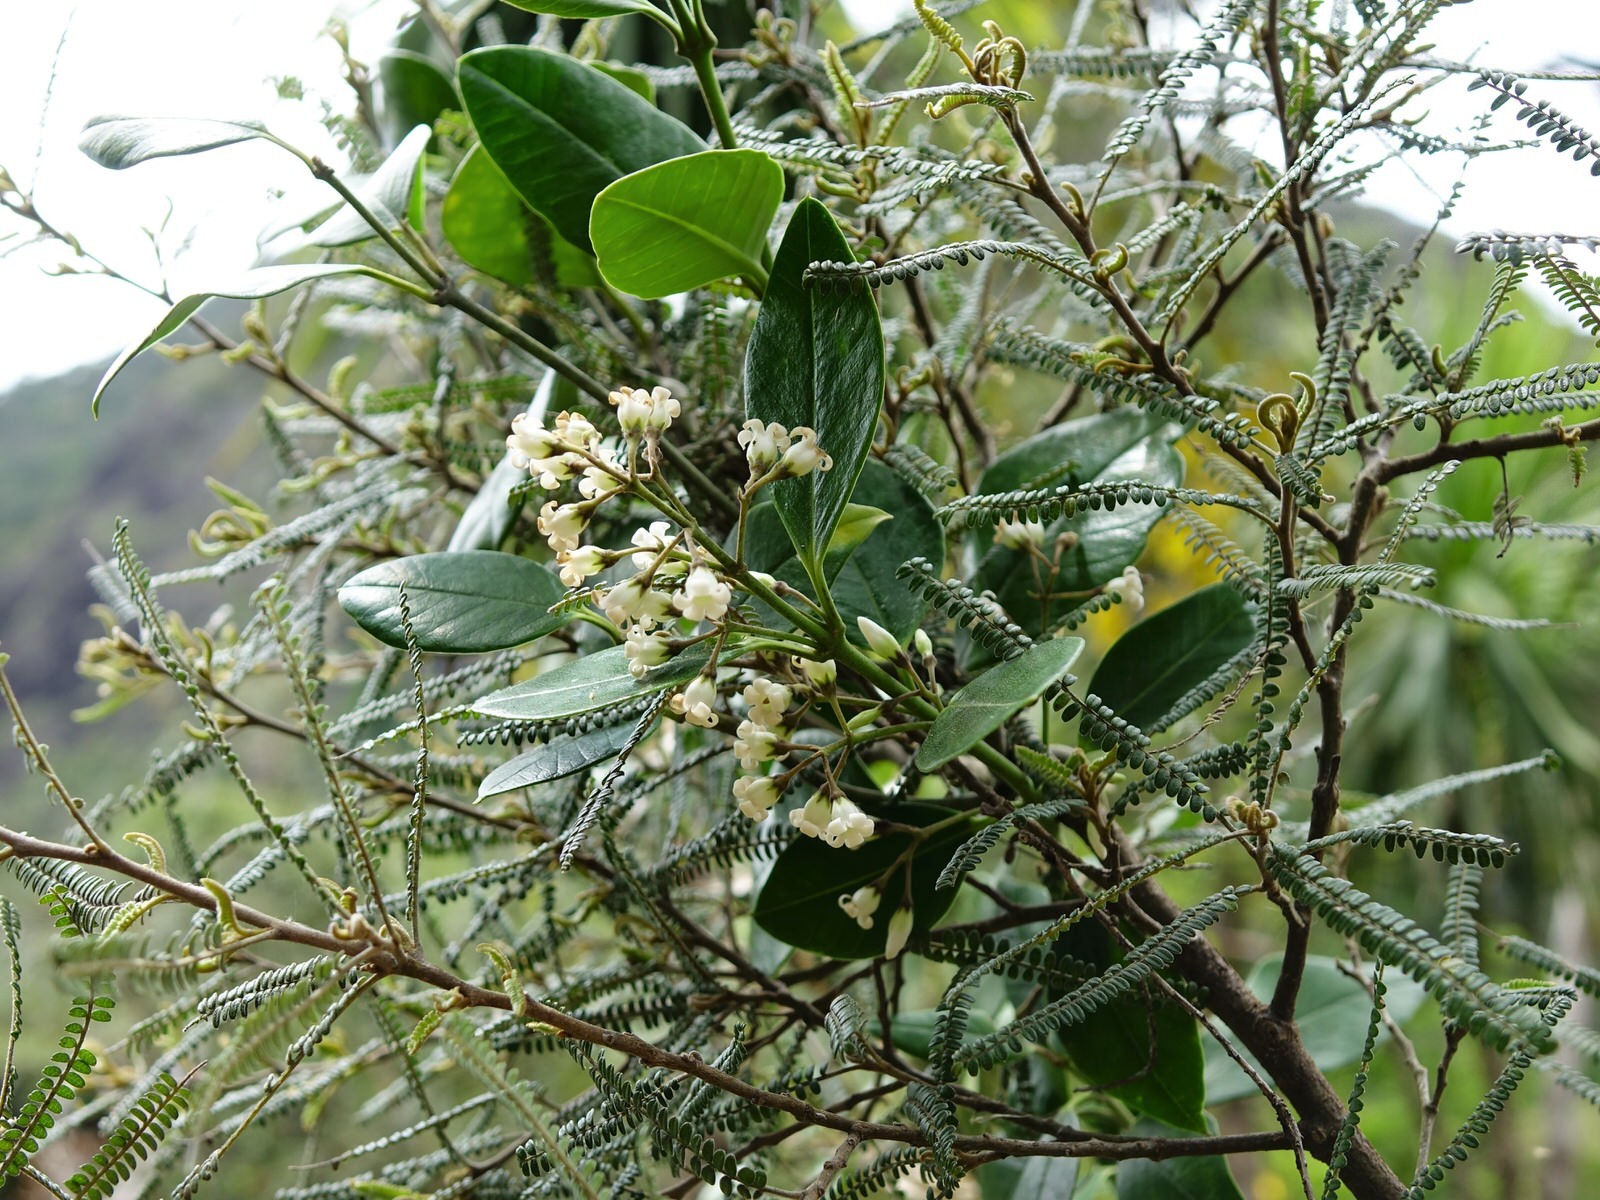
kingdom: Plantae
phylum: Tracheophyta
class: Magnoliopsida
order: Gentianales
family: Apocynaceae
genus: Parsonsia
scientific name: Parsonsia heterophylla
